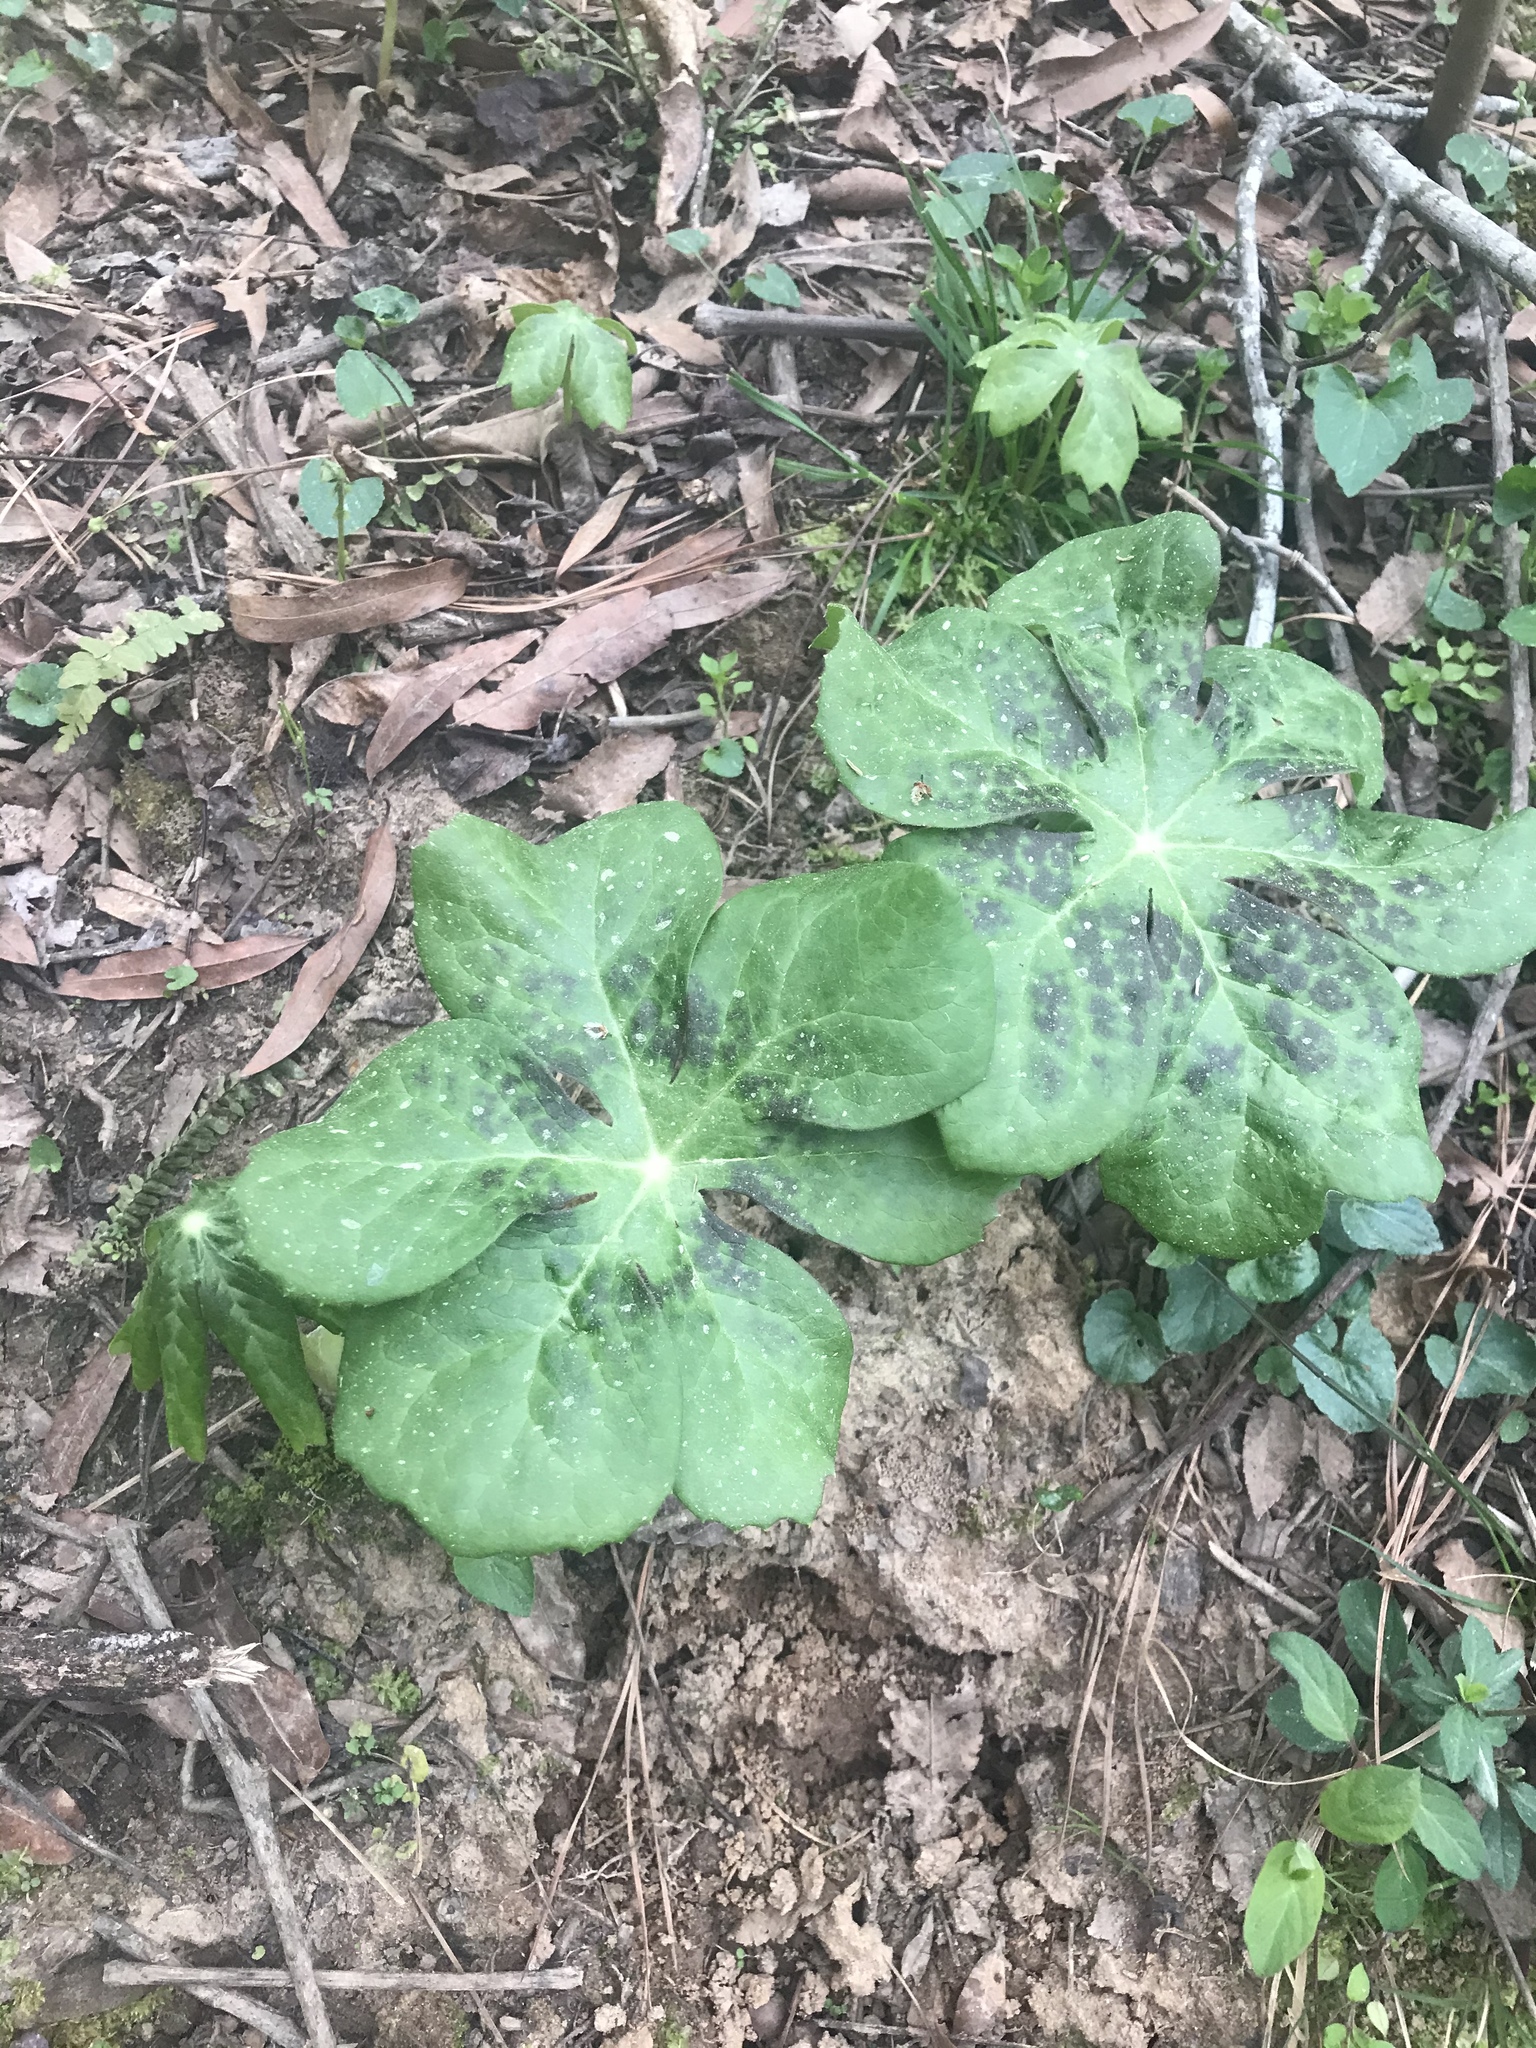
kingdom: Plantae
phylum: Tracheophyta
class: Magnoliopsida
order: Ranunculales
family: Berberidaceae
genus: Podophyllum
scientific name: Podophyllum peltatum
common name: Wild mandrake
